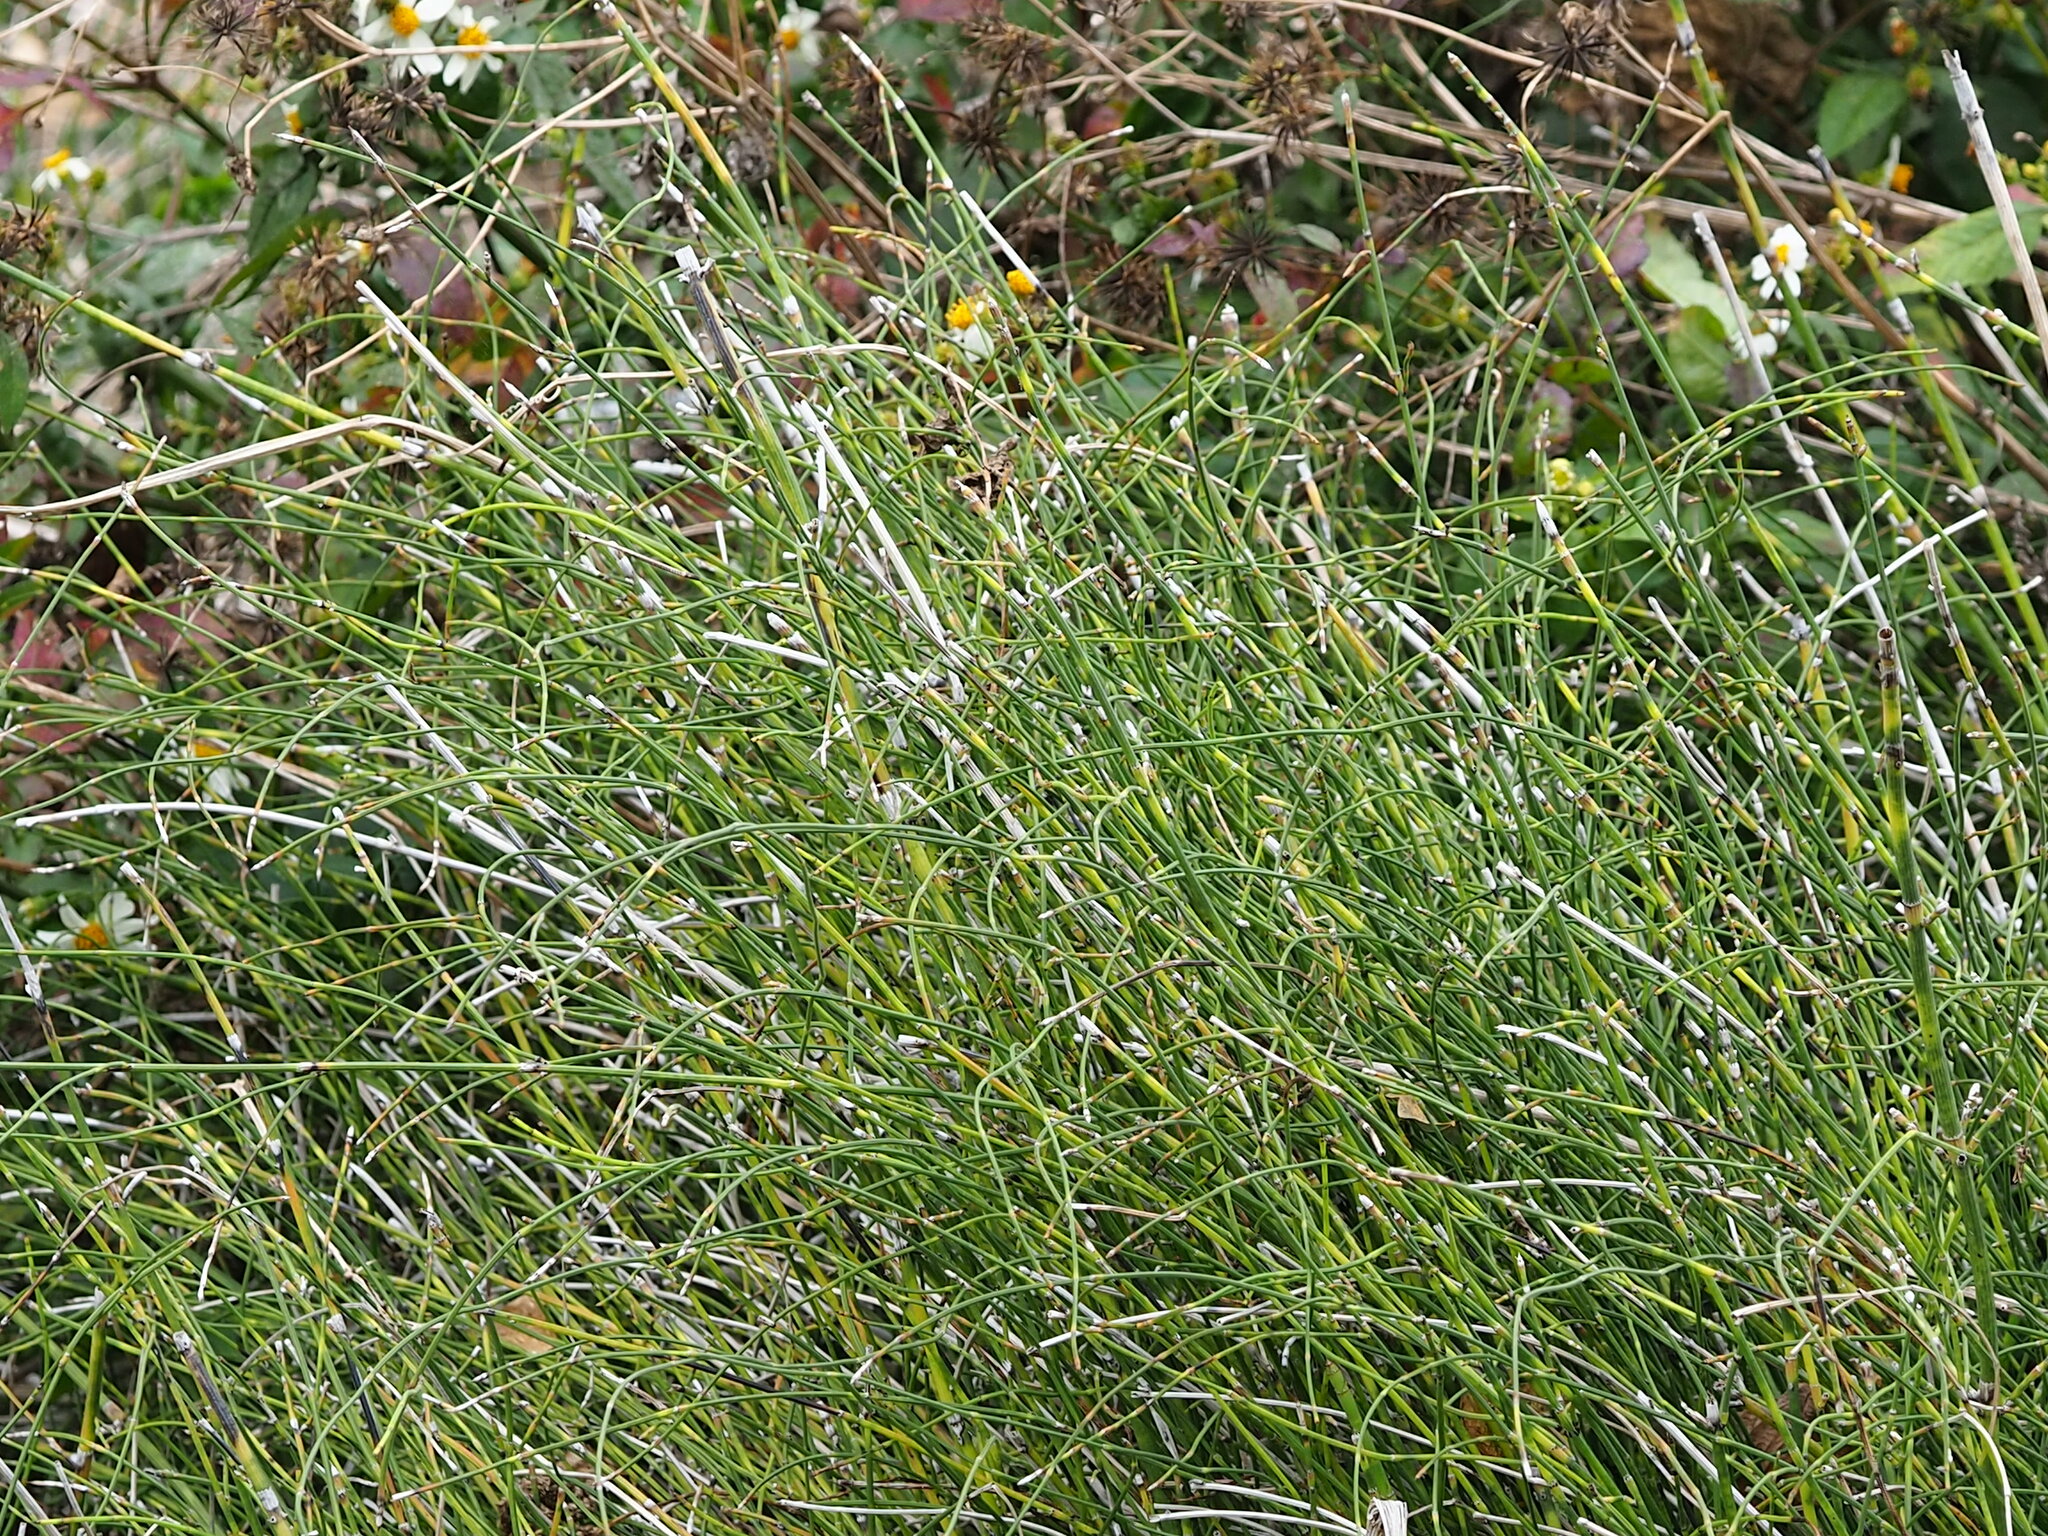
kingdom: Plantae
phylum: Tracheophyta
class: Polypodiopsida
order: Equisetales
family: Equisetaceae
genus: Equisetum
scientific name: Equisetum ramosissimum
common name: Branched horsetail
